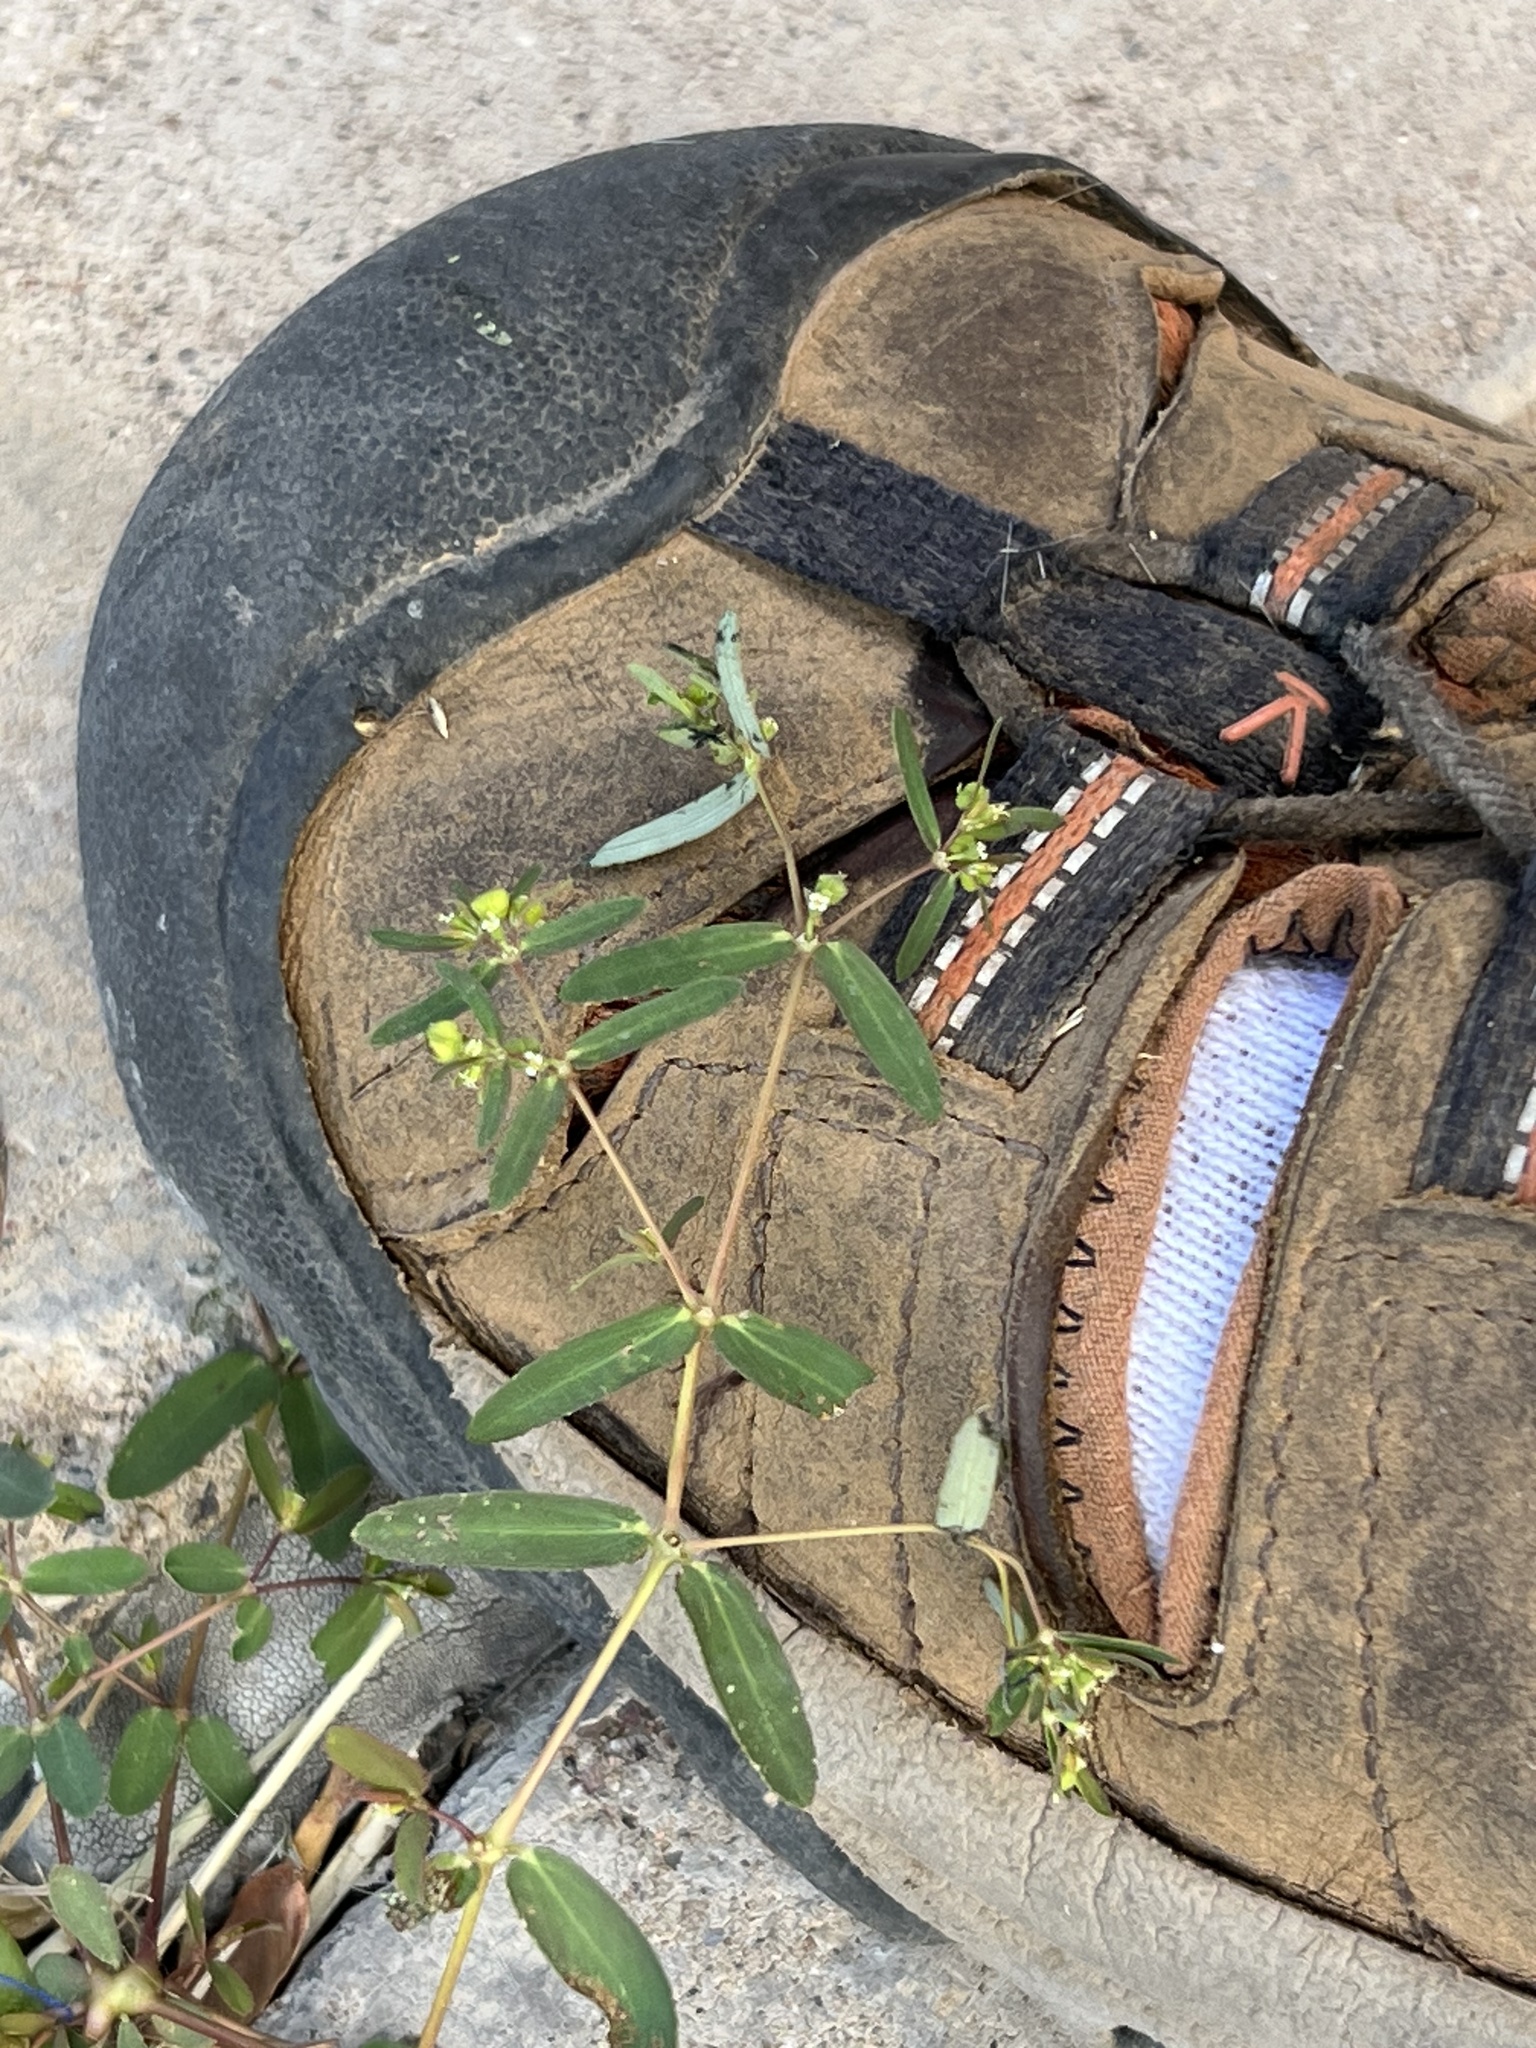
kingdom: Plantae
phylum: Tracheophyta
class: Magnoliopsida
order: Malpighiales
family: Euphorbiaceae
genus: Euphorbia
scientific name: Euphorbia hyssopifolia
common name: Hyssopleaf sandmat
